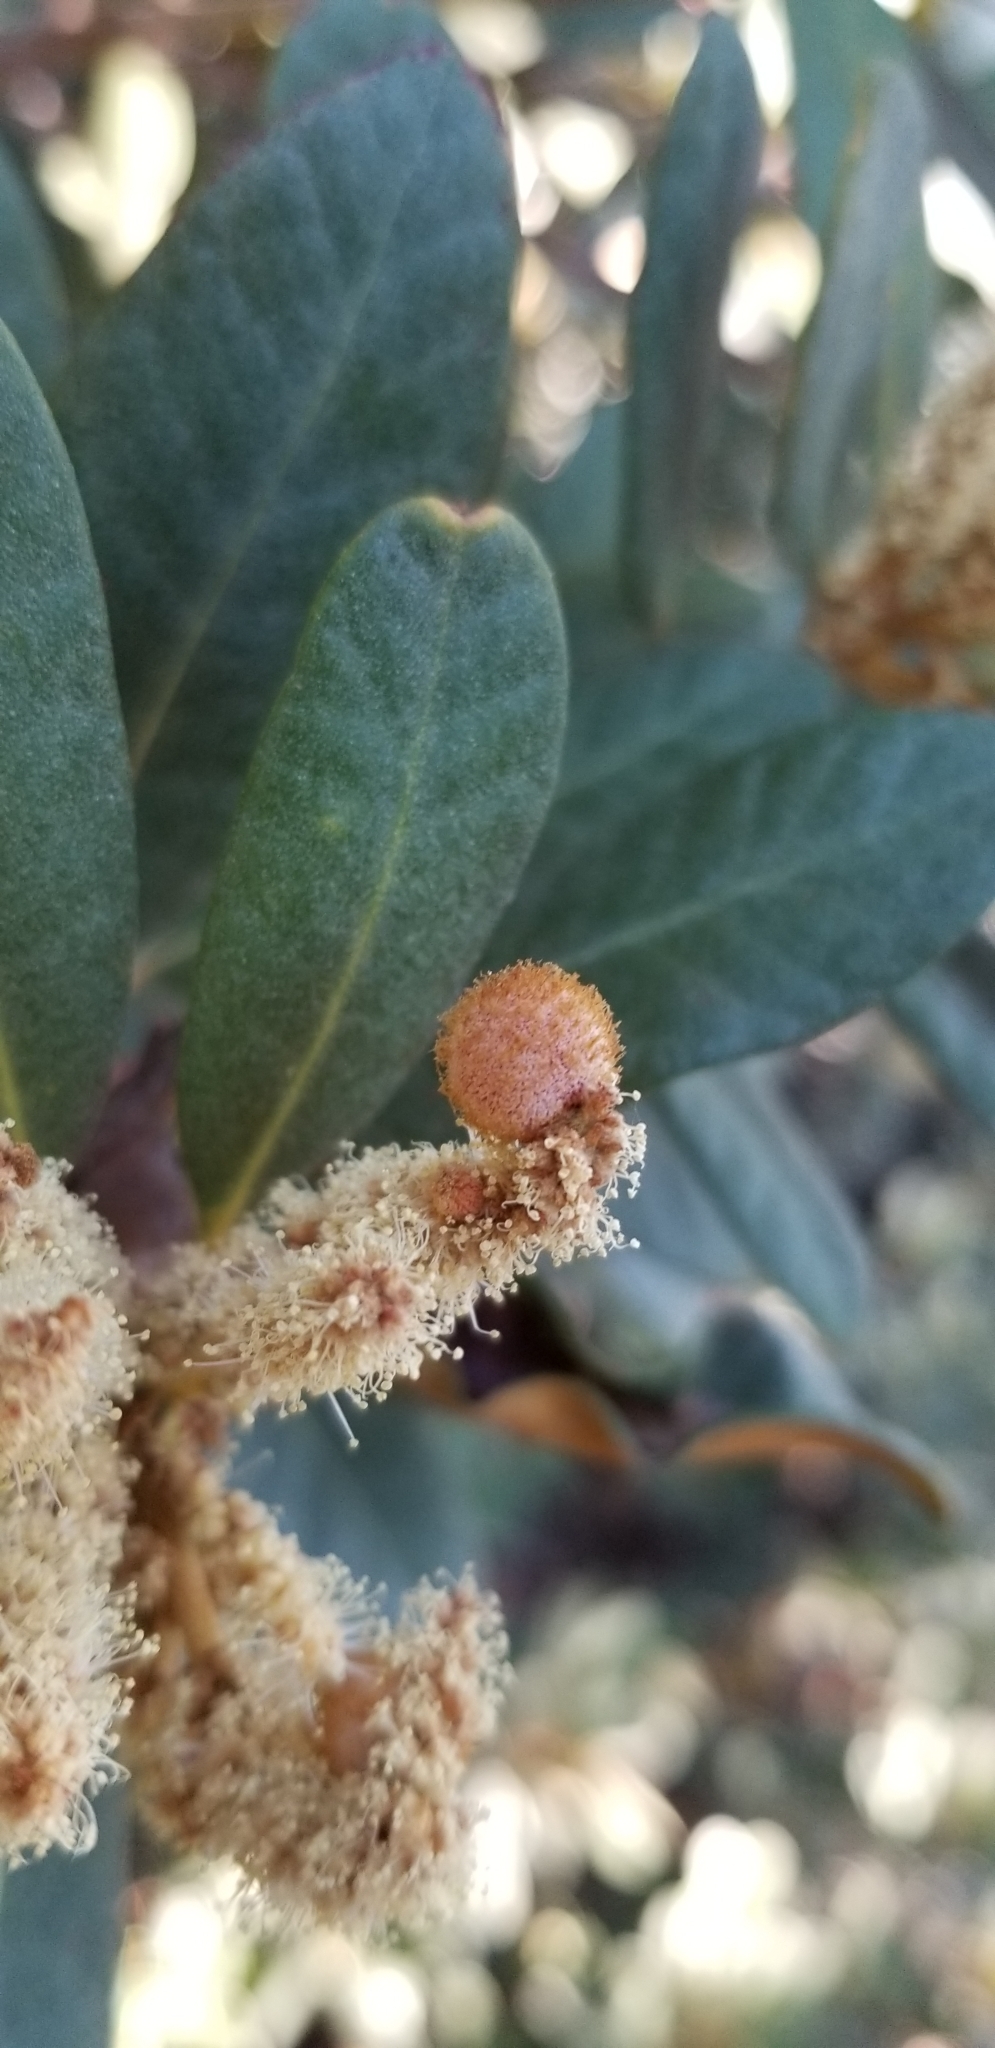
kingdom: Plantae
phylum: Tracheophyta
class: Magnoliopsida
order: Fagales
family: Fagaceae
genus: Chrysolepis
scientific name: Chrysolepis sempervirens
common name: Bush chinquapin
